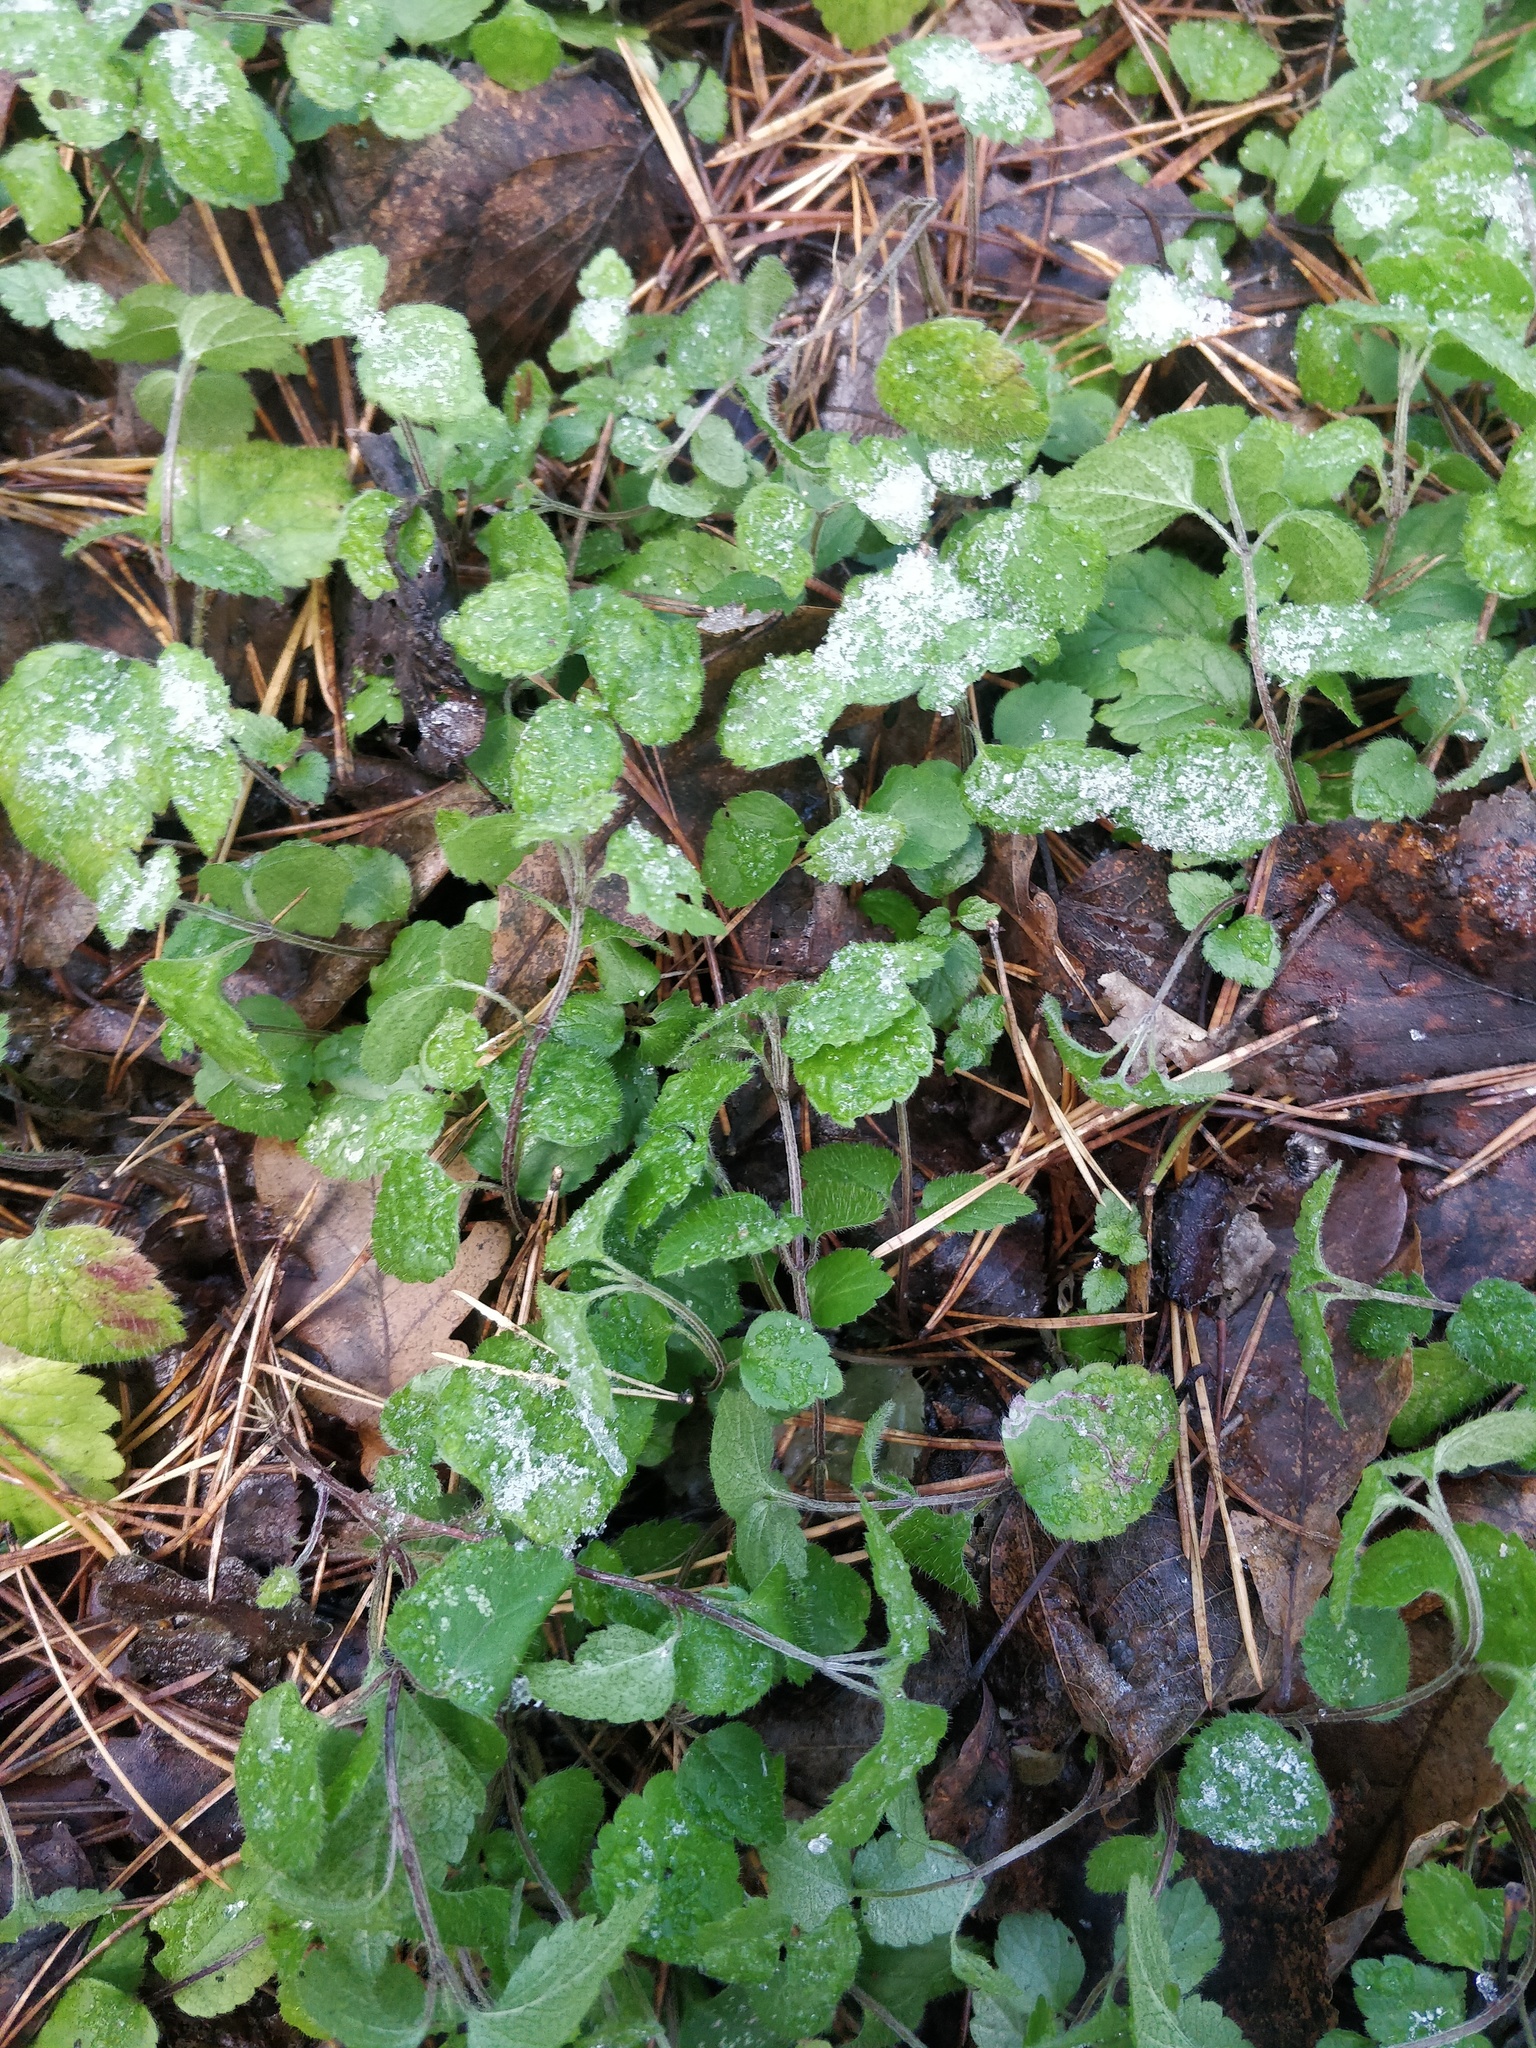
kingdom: Plantae
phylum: Tracheophyta
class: Magnoliopsida
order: Lamiales
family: Plantaginaceae
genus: Veronica
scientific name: Veronica chamaedrys
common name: Germander speedwell
